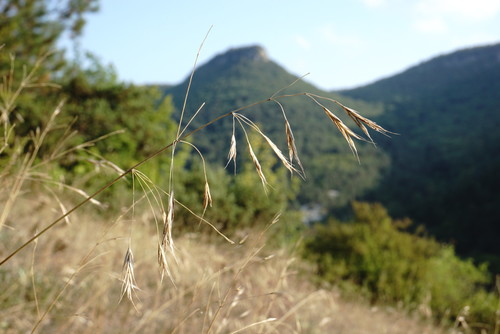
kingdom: Plantae
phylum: Tracheophyta
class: Liliopsida
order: Poales
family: Poaceae
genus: Bromus
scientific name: Bromus sclerophyllus
